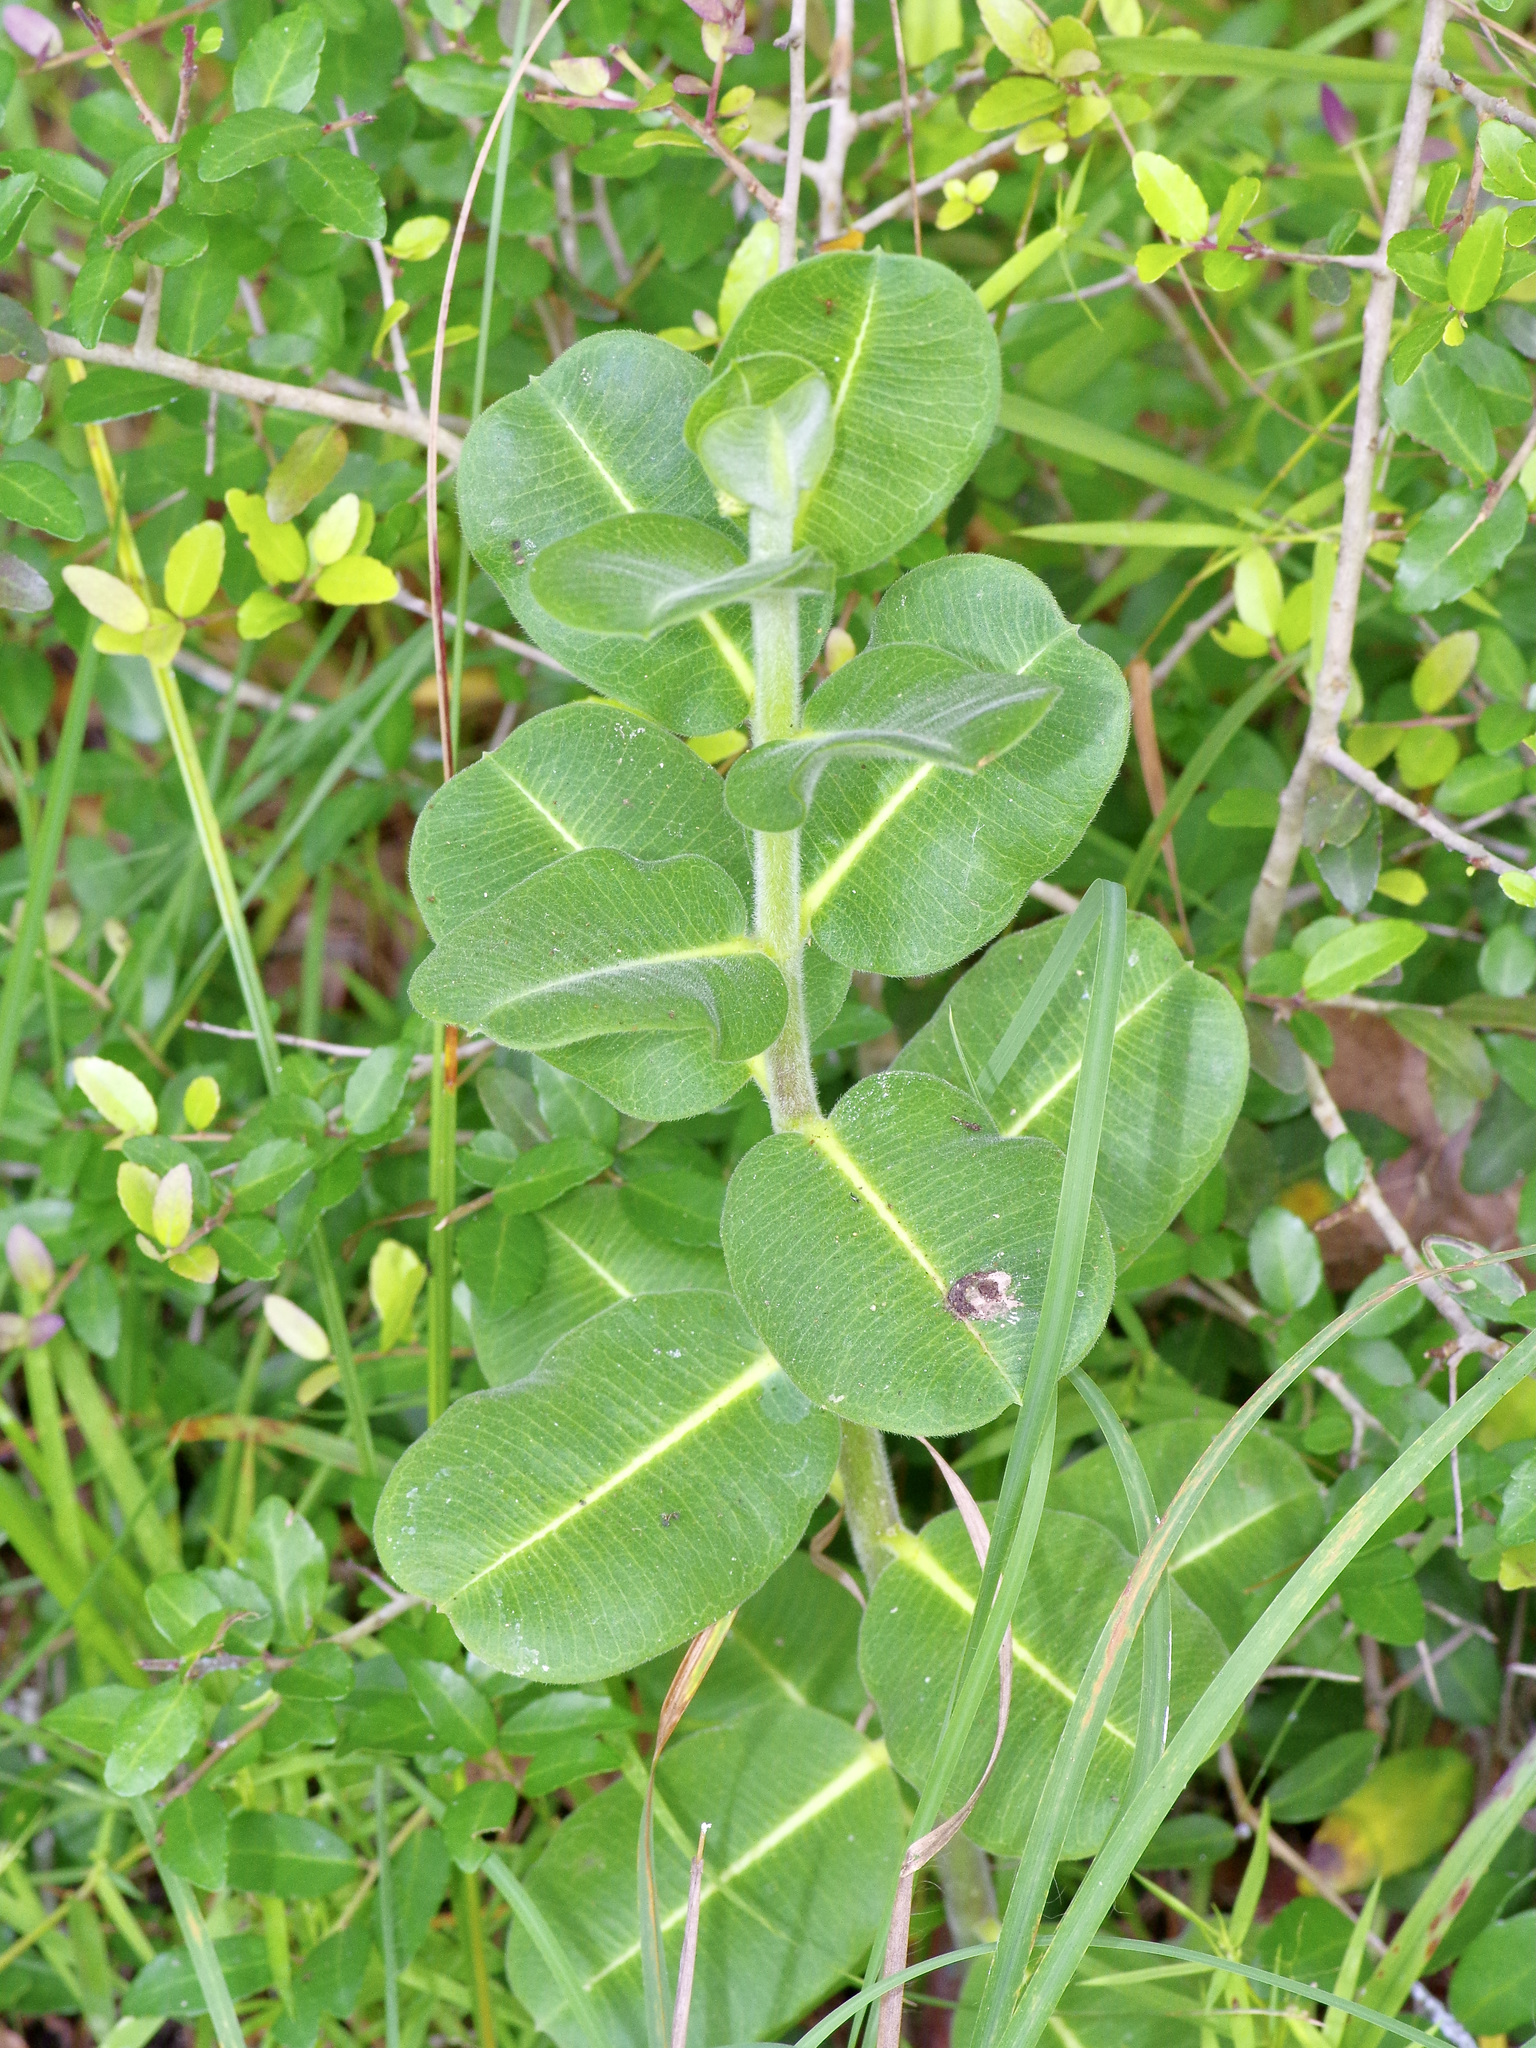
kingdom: Plantae
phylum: Tracheophyta
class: Magnoliopsida
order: Gentianales
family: Apocynaceae
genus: Asclepias
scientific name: Asclepias obovata
